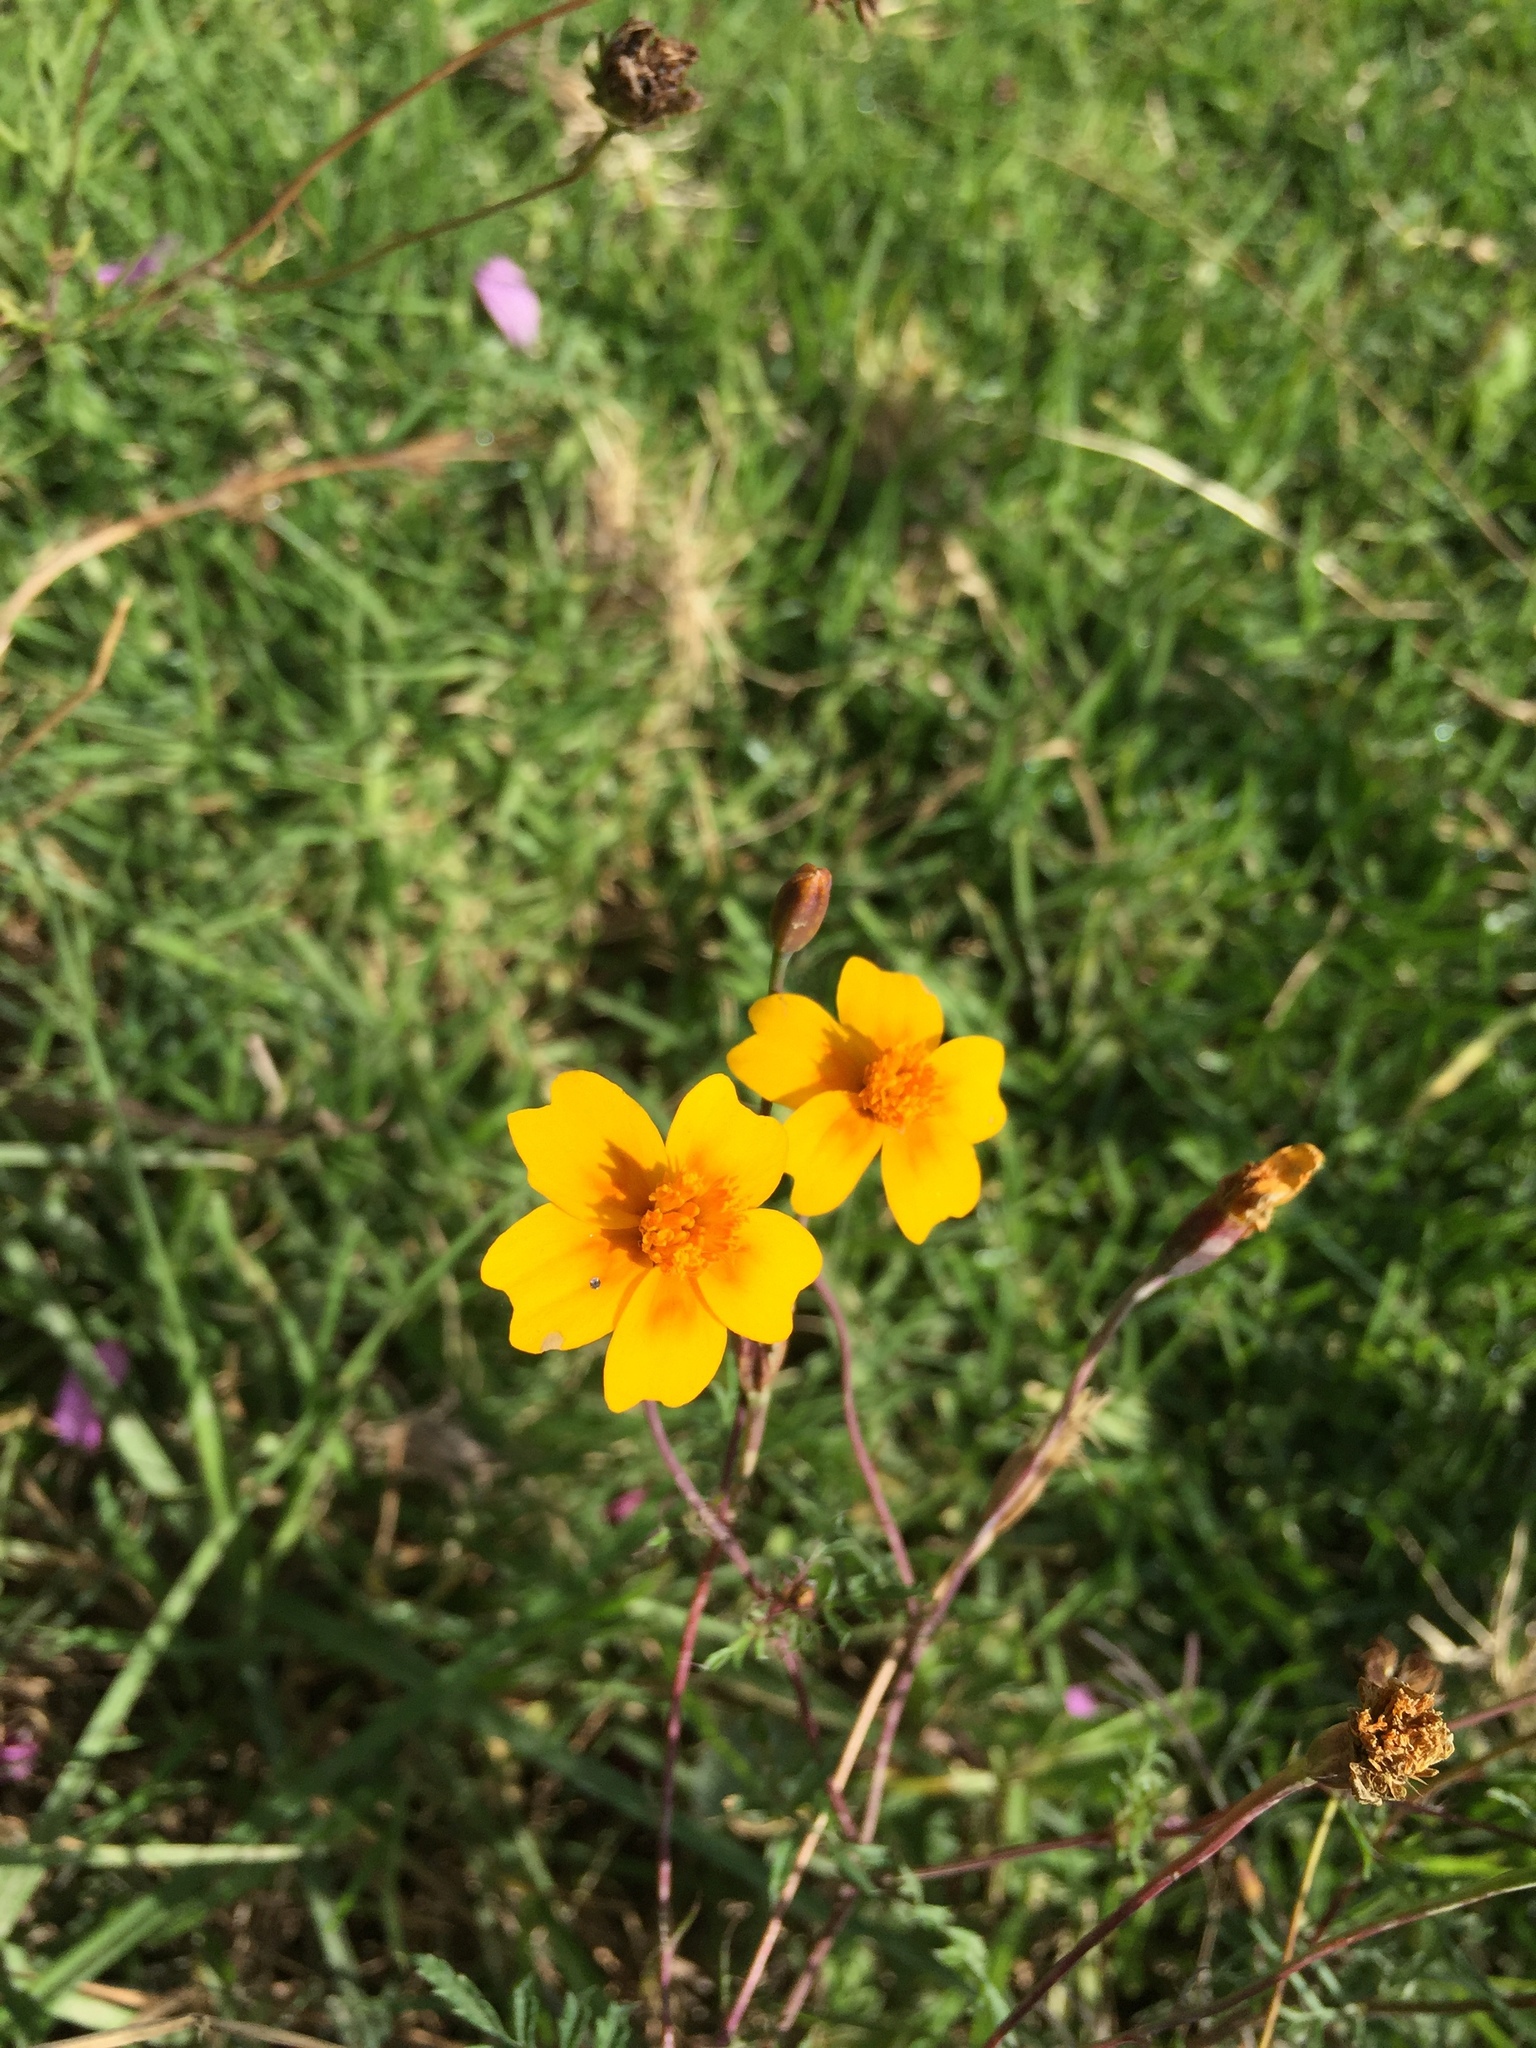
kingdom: Plantae
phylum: Tracheophyta
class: Magnoliopsida
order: Asterales
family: Asteraceae
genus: Tagetes
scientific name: Tagetes lunulata
